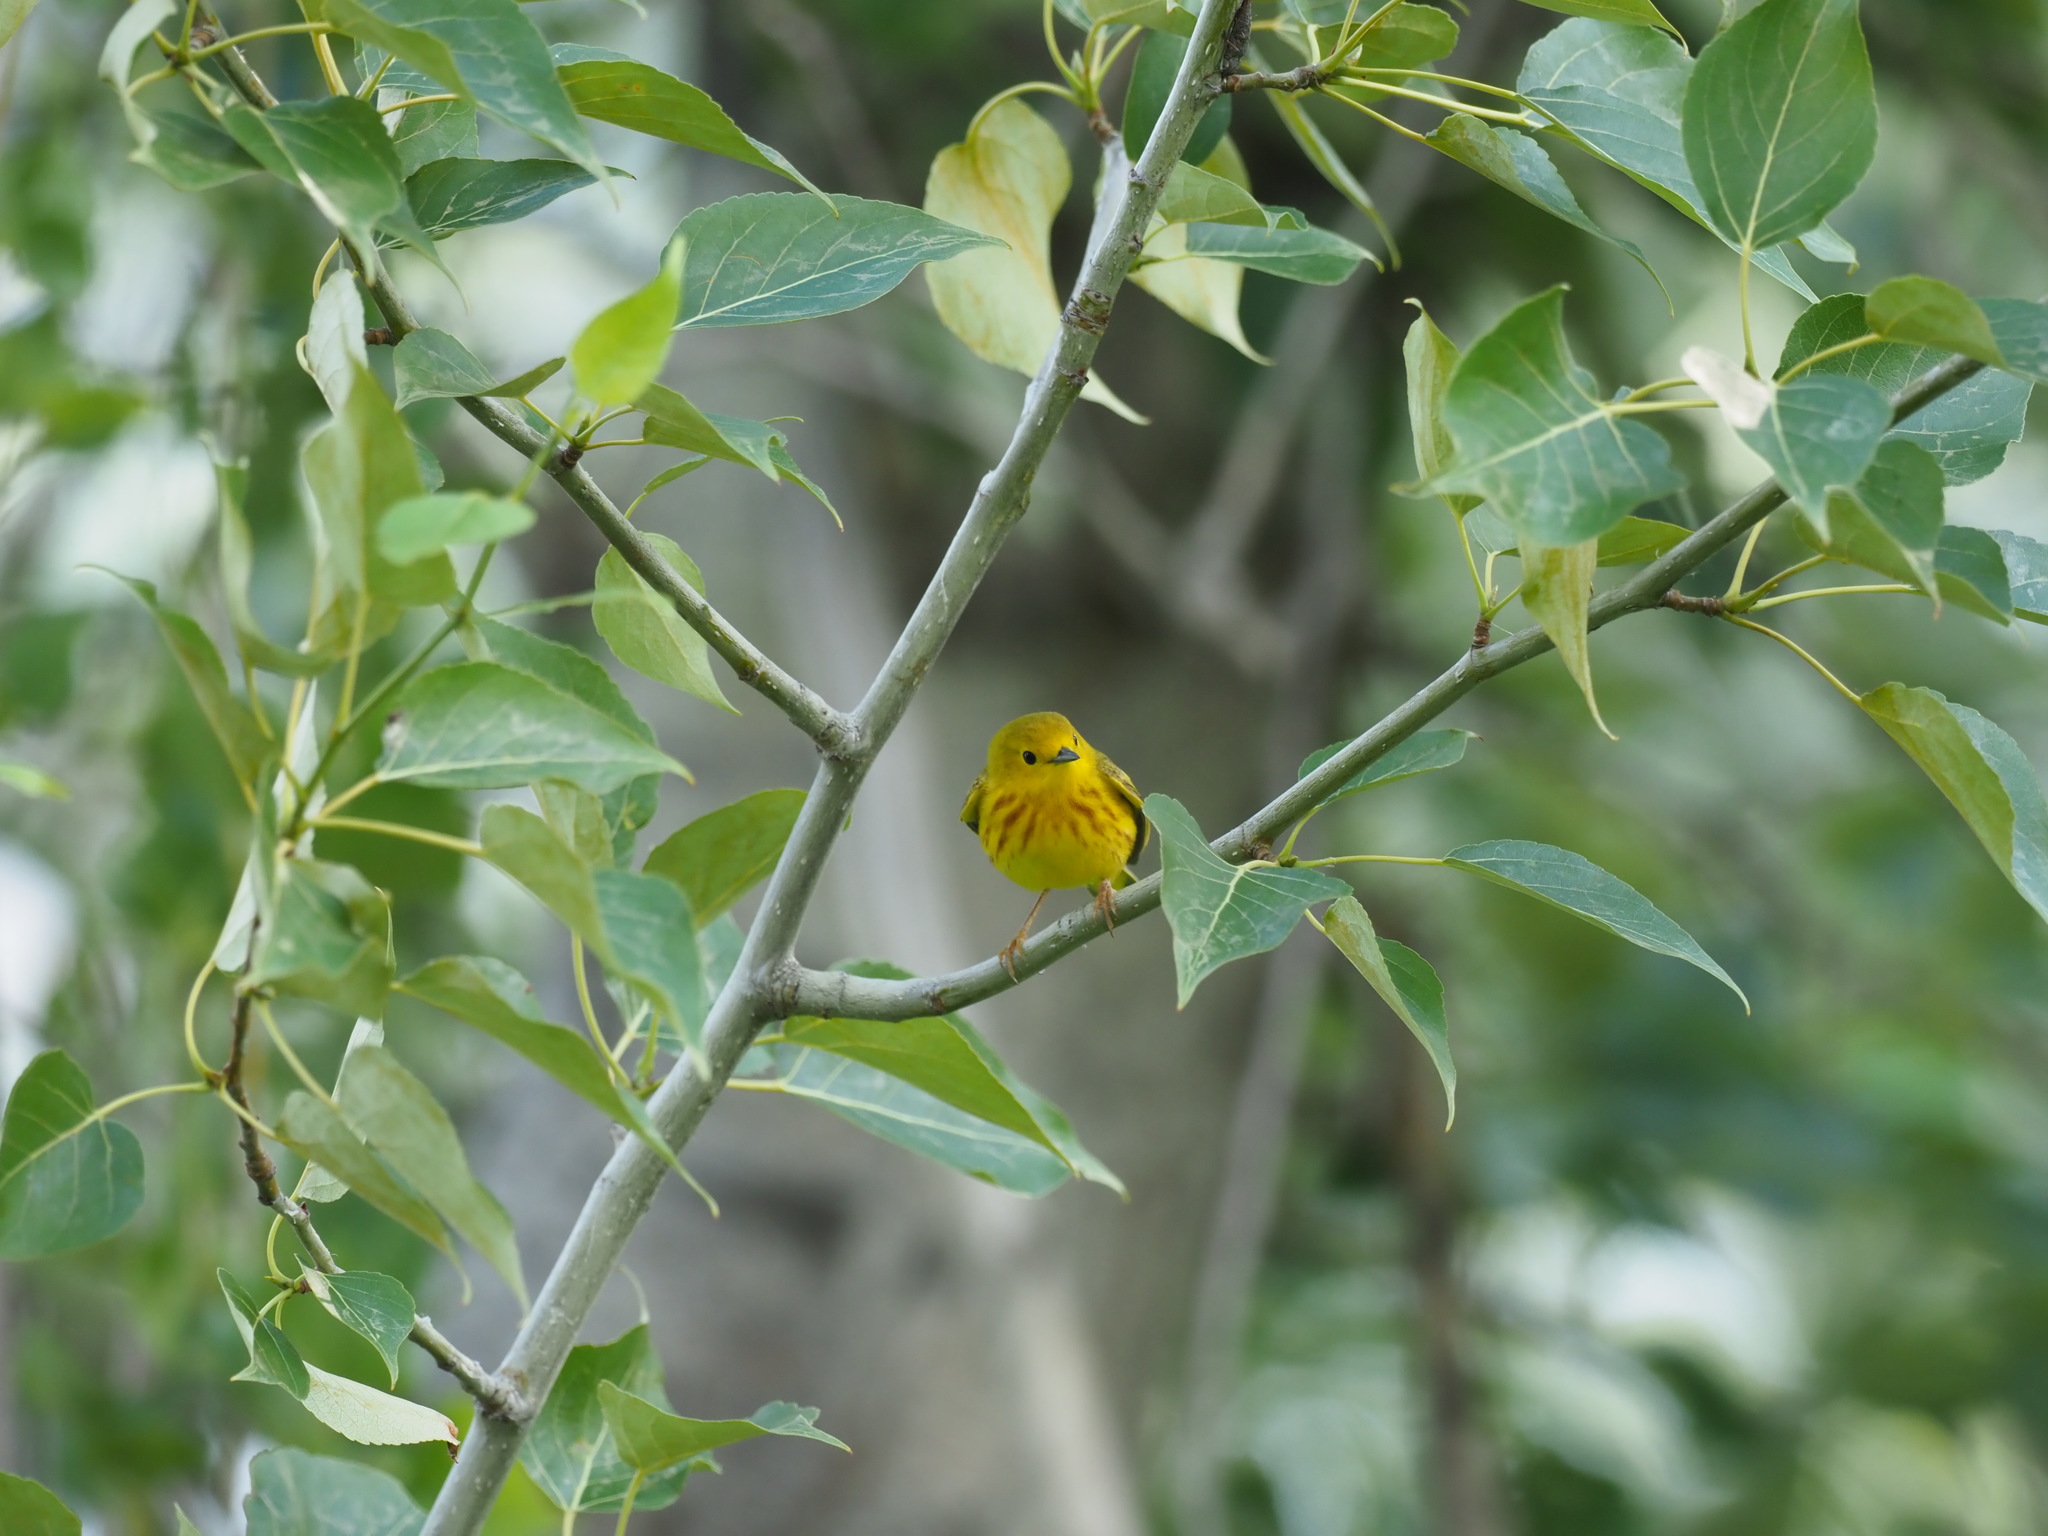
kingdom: Animalia
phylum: Chordata
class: Aves
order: Passeriformes
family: Parulidae
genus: Setophaga
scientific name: Setophaga petechia
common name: Yellow warbler
